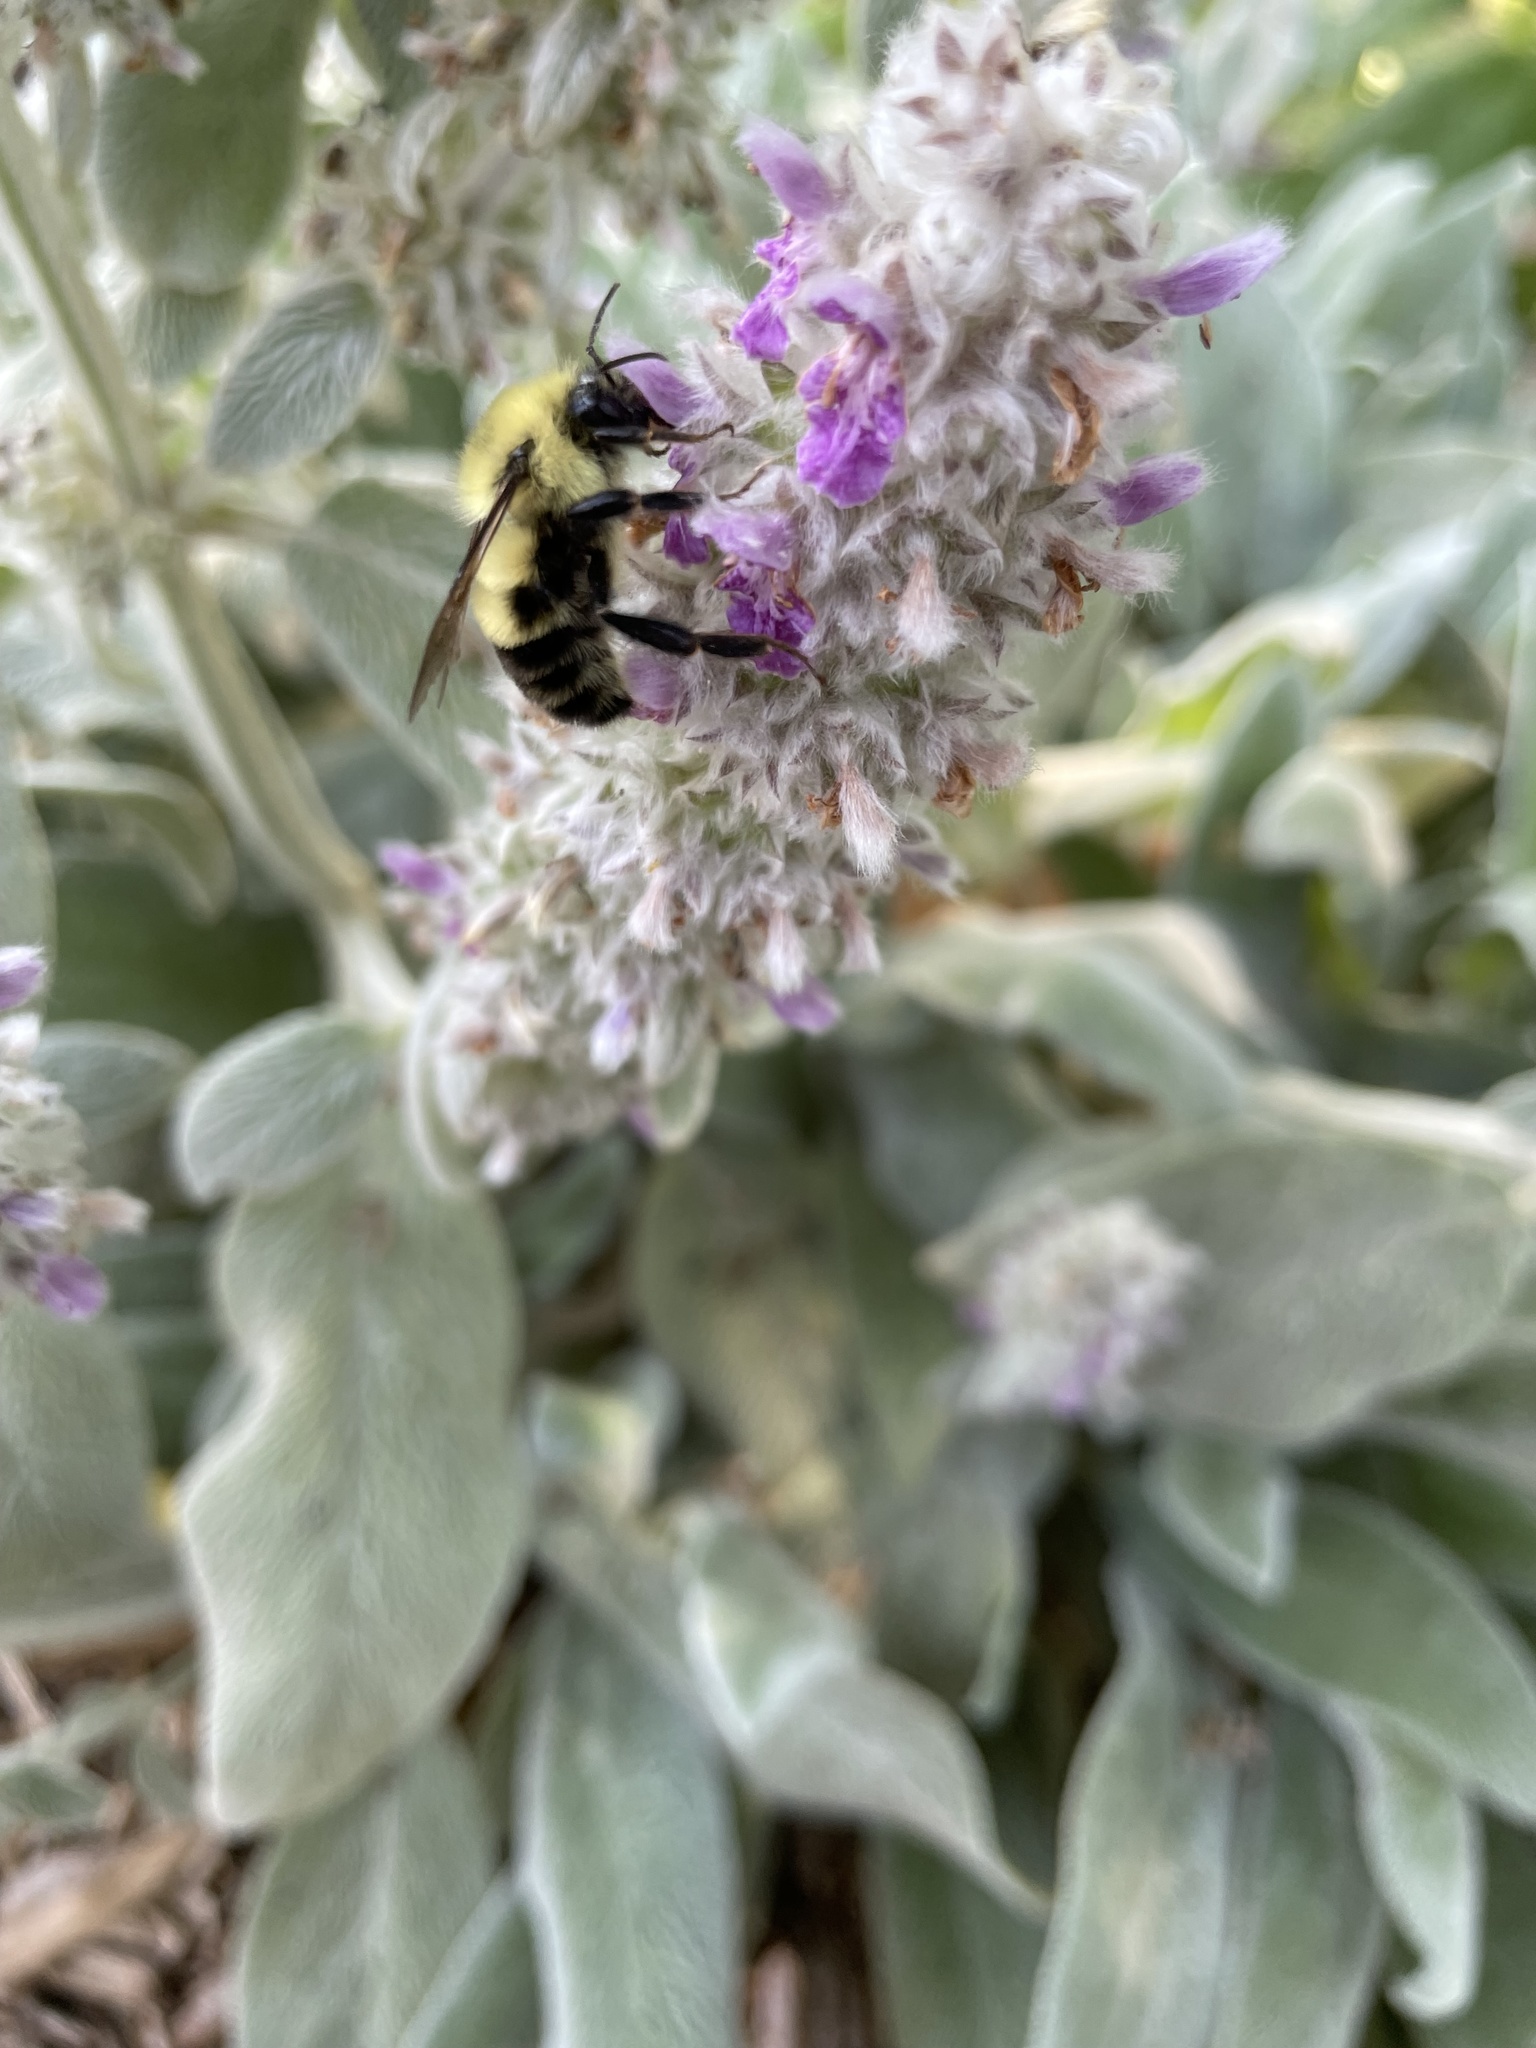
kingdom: Animalia
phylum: Arthropoda
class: Insecta
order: Hymenoptera
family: Apidae
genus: Bombus
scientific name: Bombus bimaculatus
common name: Two-spotted bumble bee
